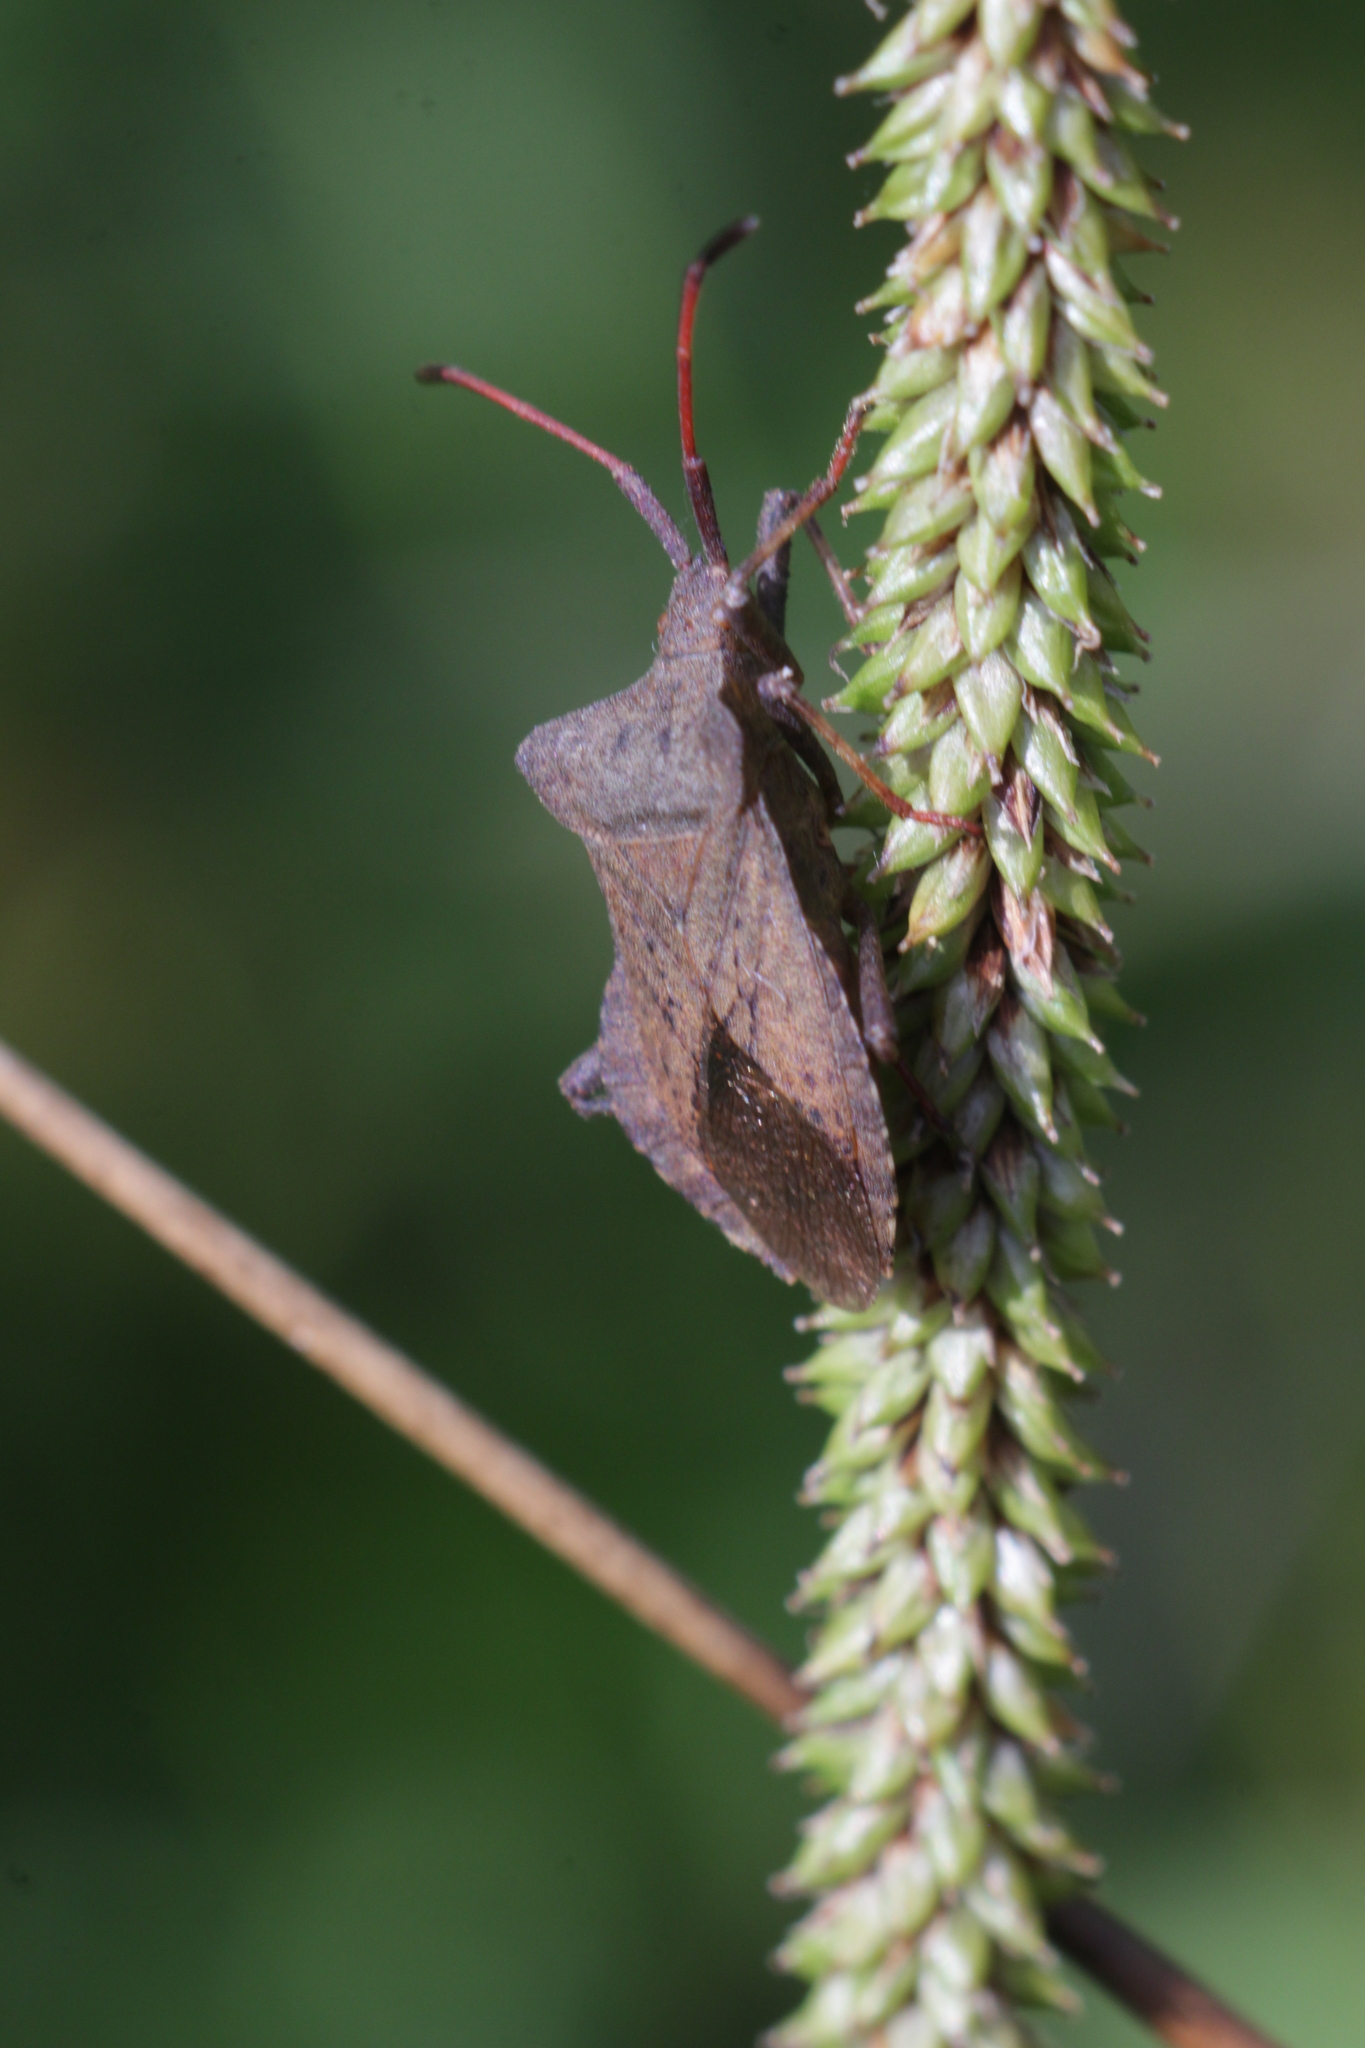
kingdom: Animalia
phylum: Arthropoda
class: Insecta
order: Hemiptera
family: Coreidae
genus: Coreus
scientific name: Coreus marginatus
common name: Dock bug
